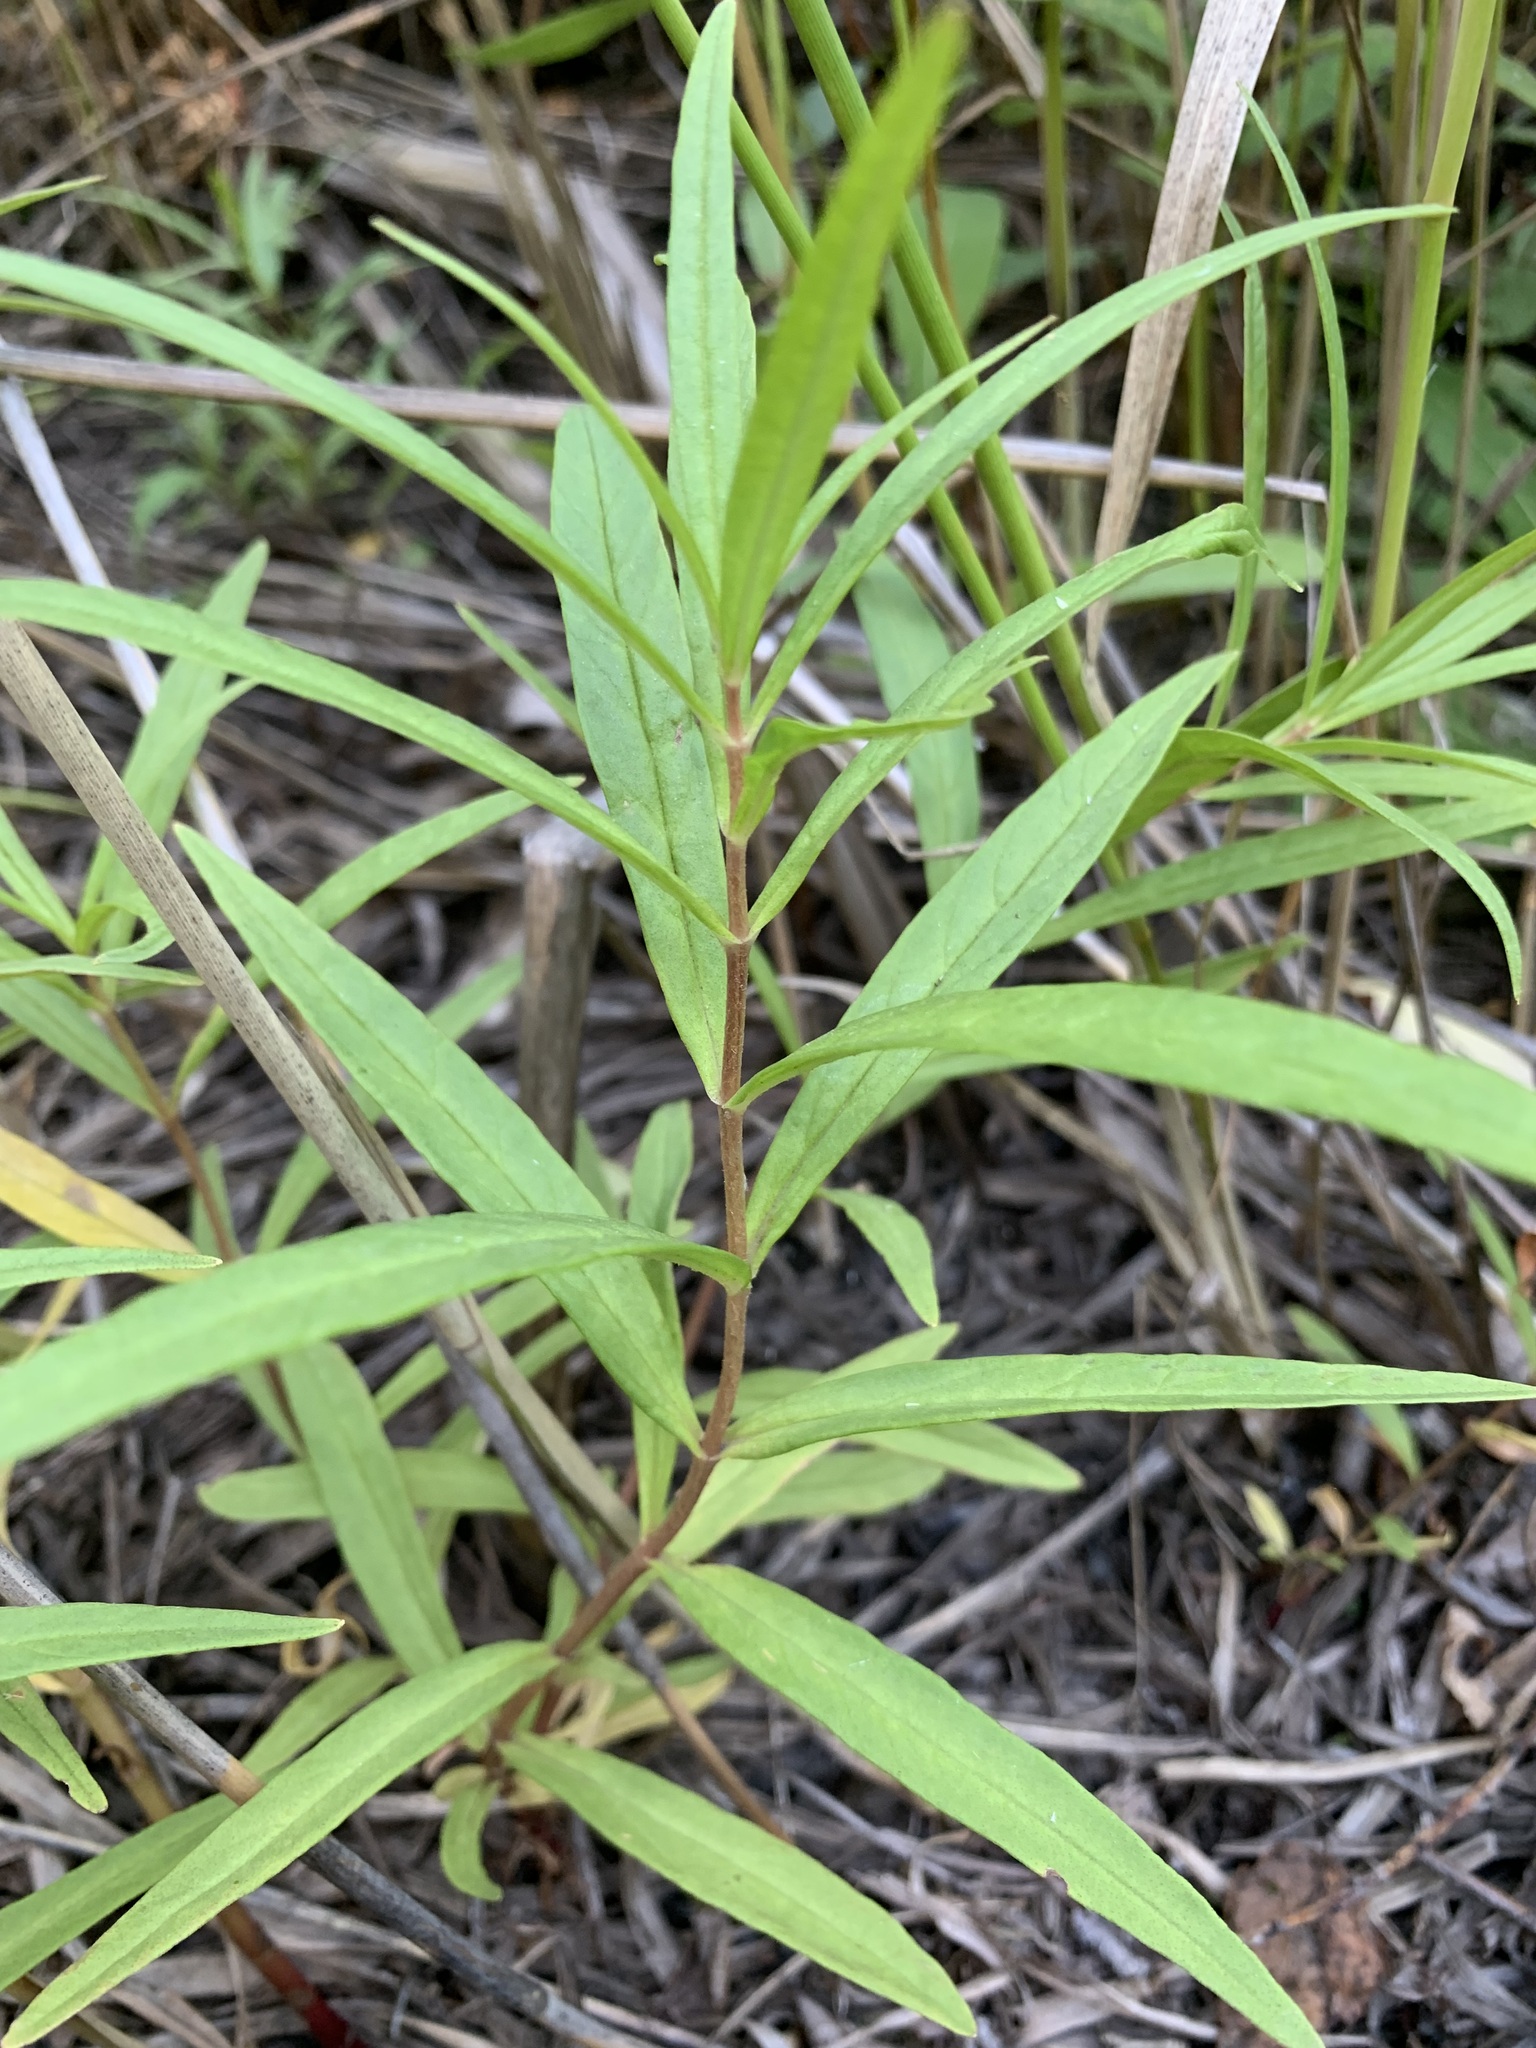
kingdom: Plantae
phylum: Tracheophyta
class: Magnoliopsida
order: Ericales
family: Primulaceae
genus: Lysimachia
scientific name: Lysimachia thyrsiflora
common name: Tufted loosestrife
